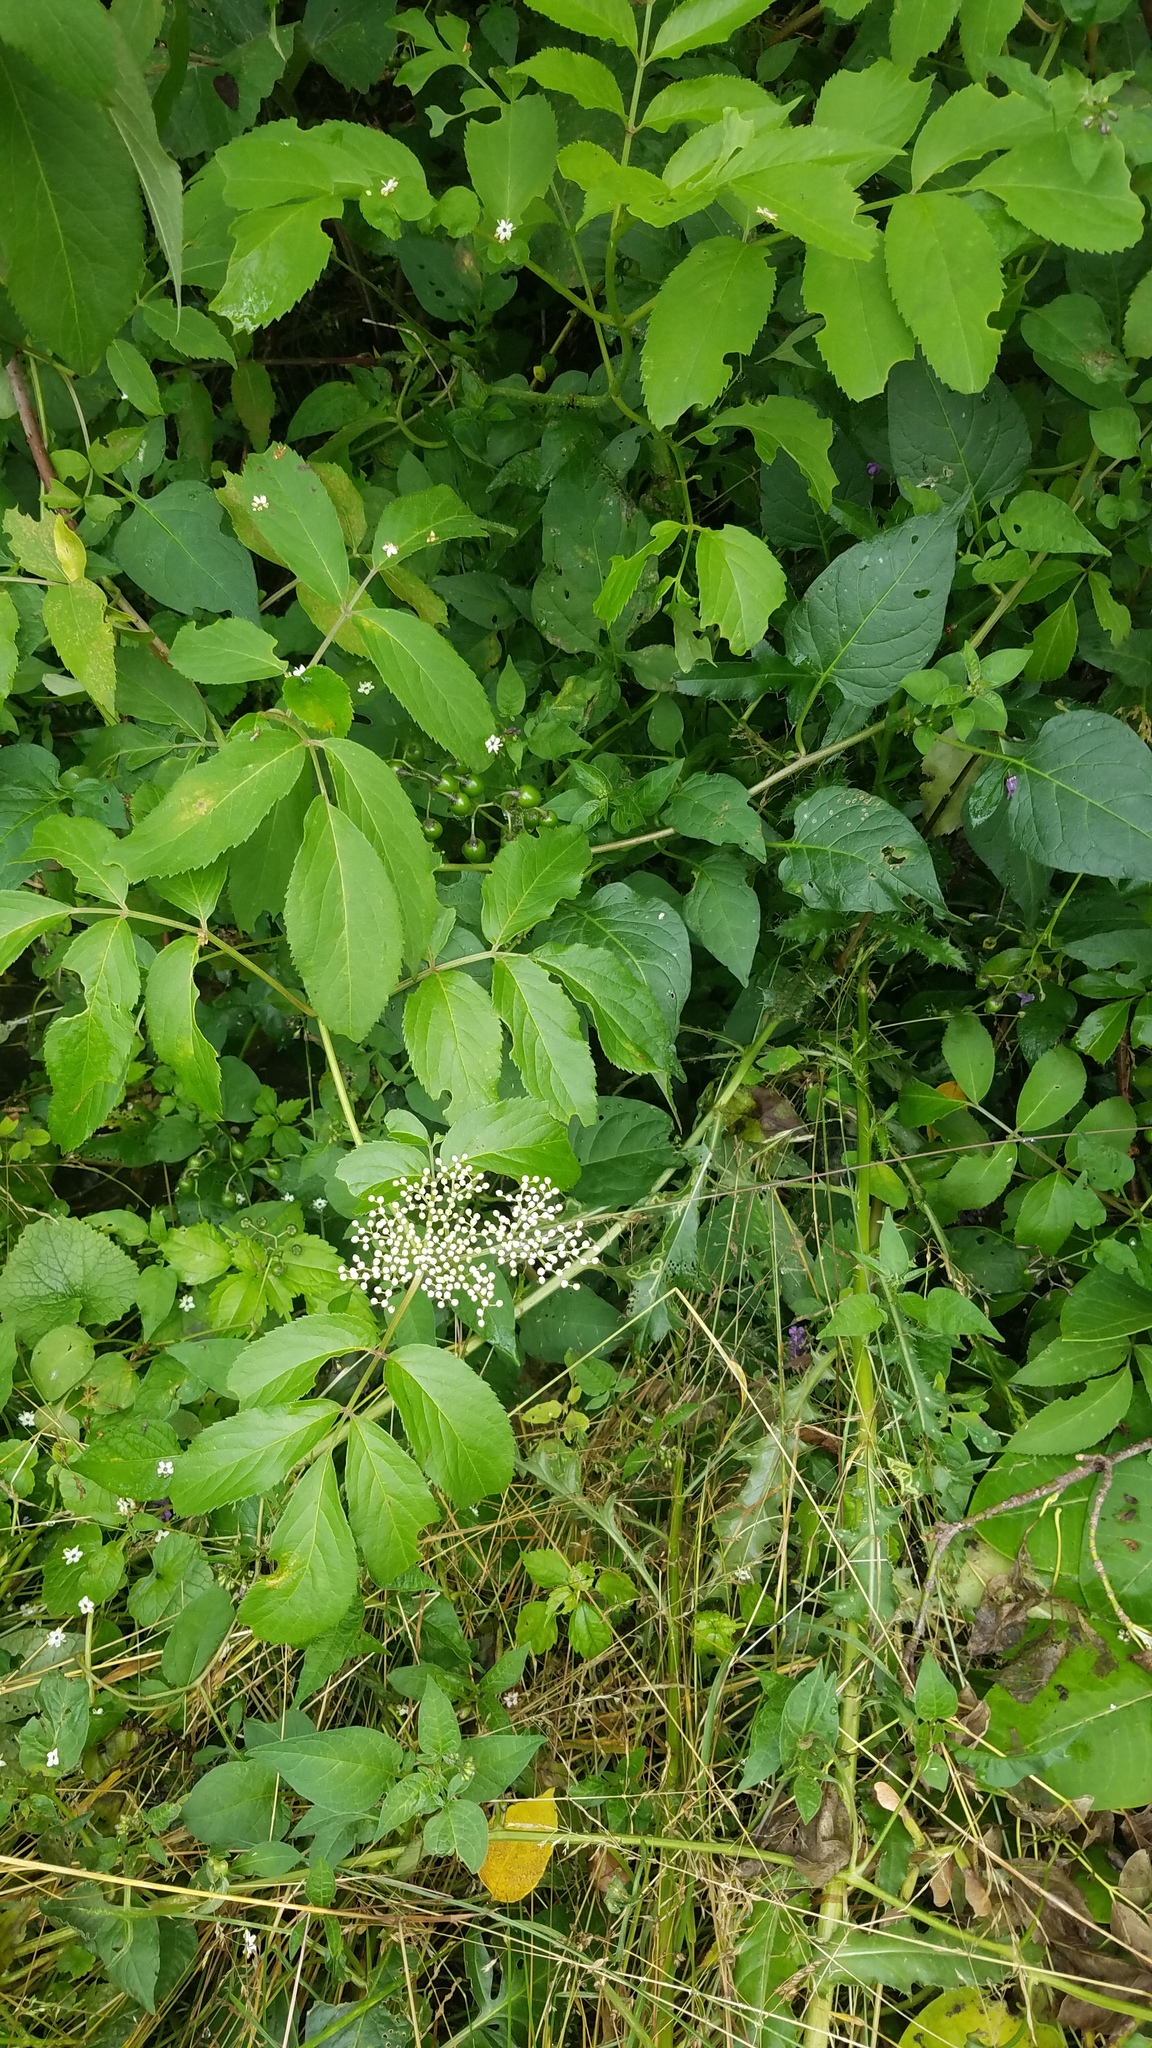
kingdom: Plantae
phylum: Tracheophyta
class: Magnoliopsida
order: Dipsacales
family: Viburnaceae
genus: Sambucus
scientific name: Sambucus canadensis
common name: American elder
